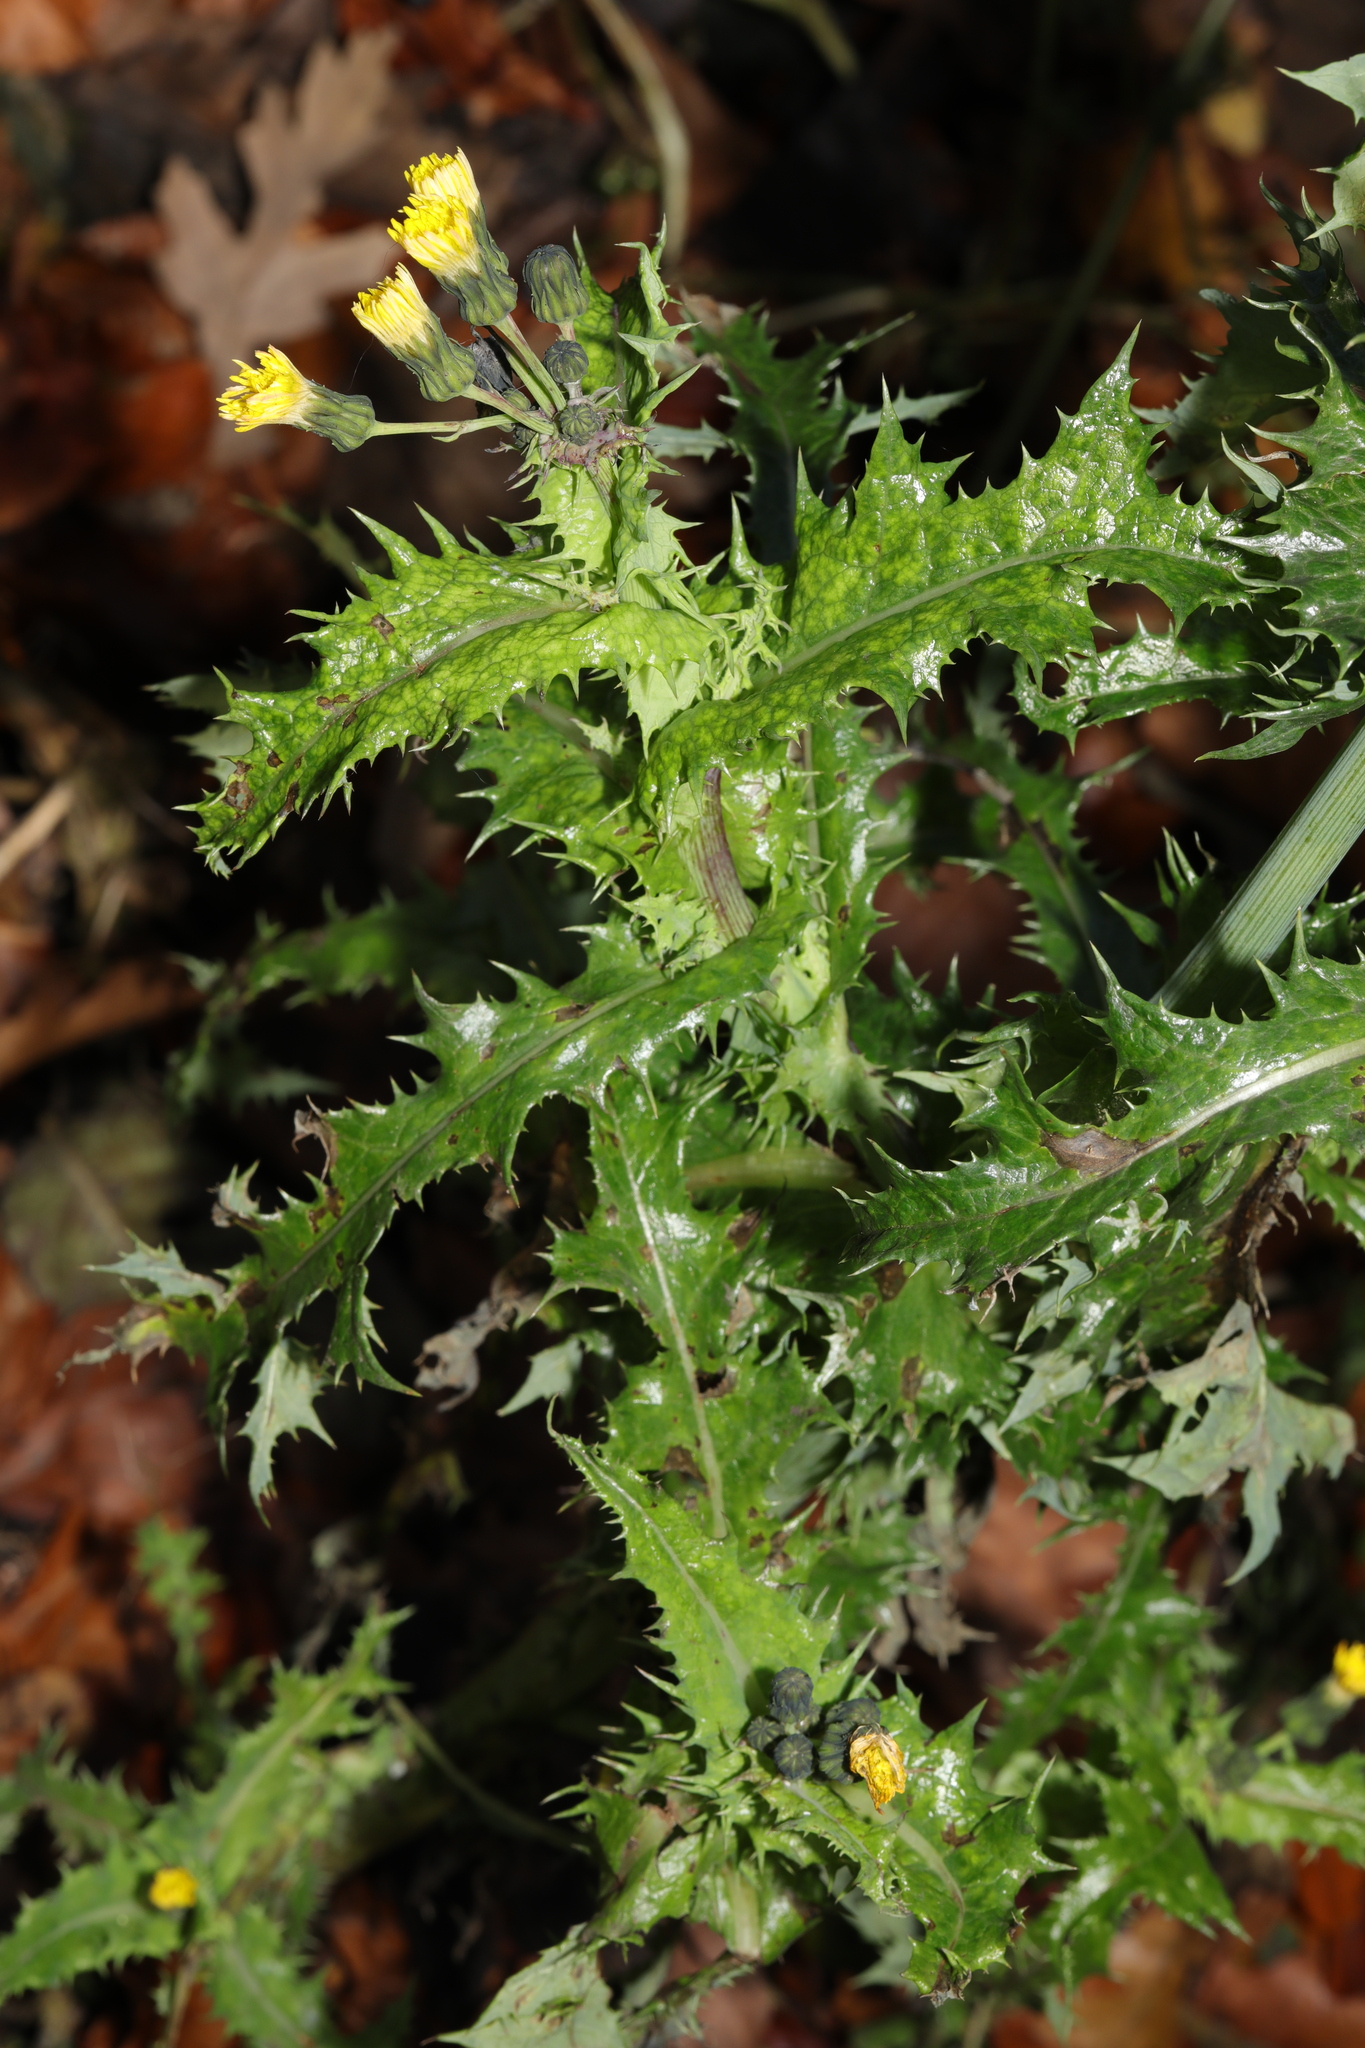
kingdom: Plantae
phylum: Tracheophyta
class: Magnoliopsida
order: Asterales
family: Asteraceae
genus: Sonchus
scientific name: Sonchus asper
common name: Prickly sow-thistle
